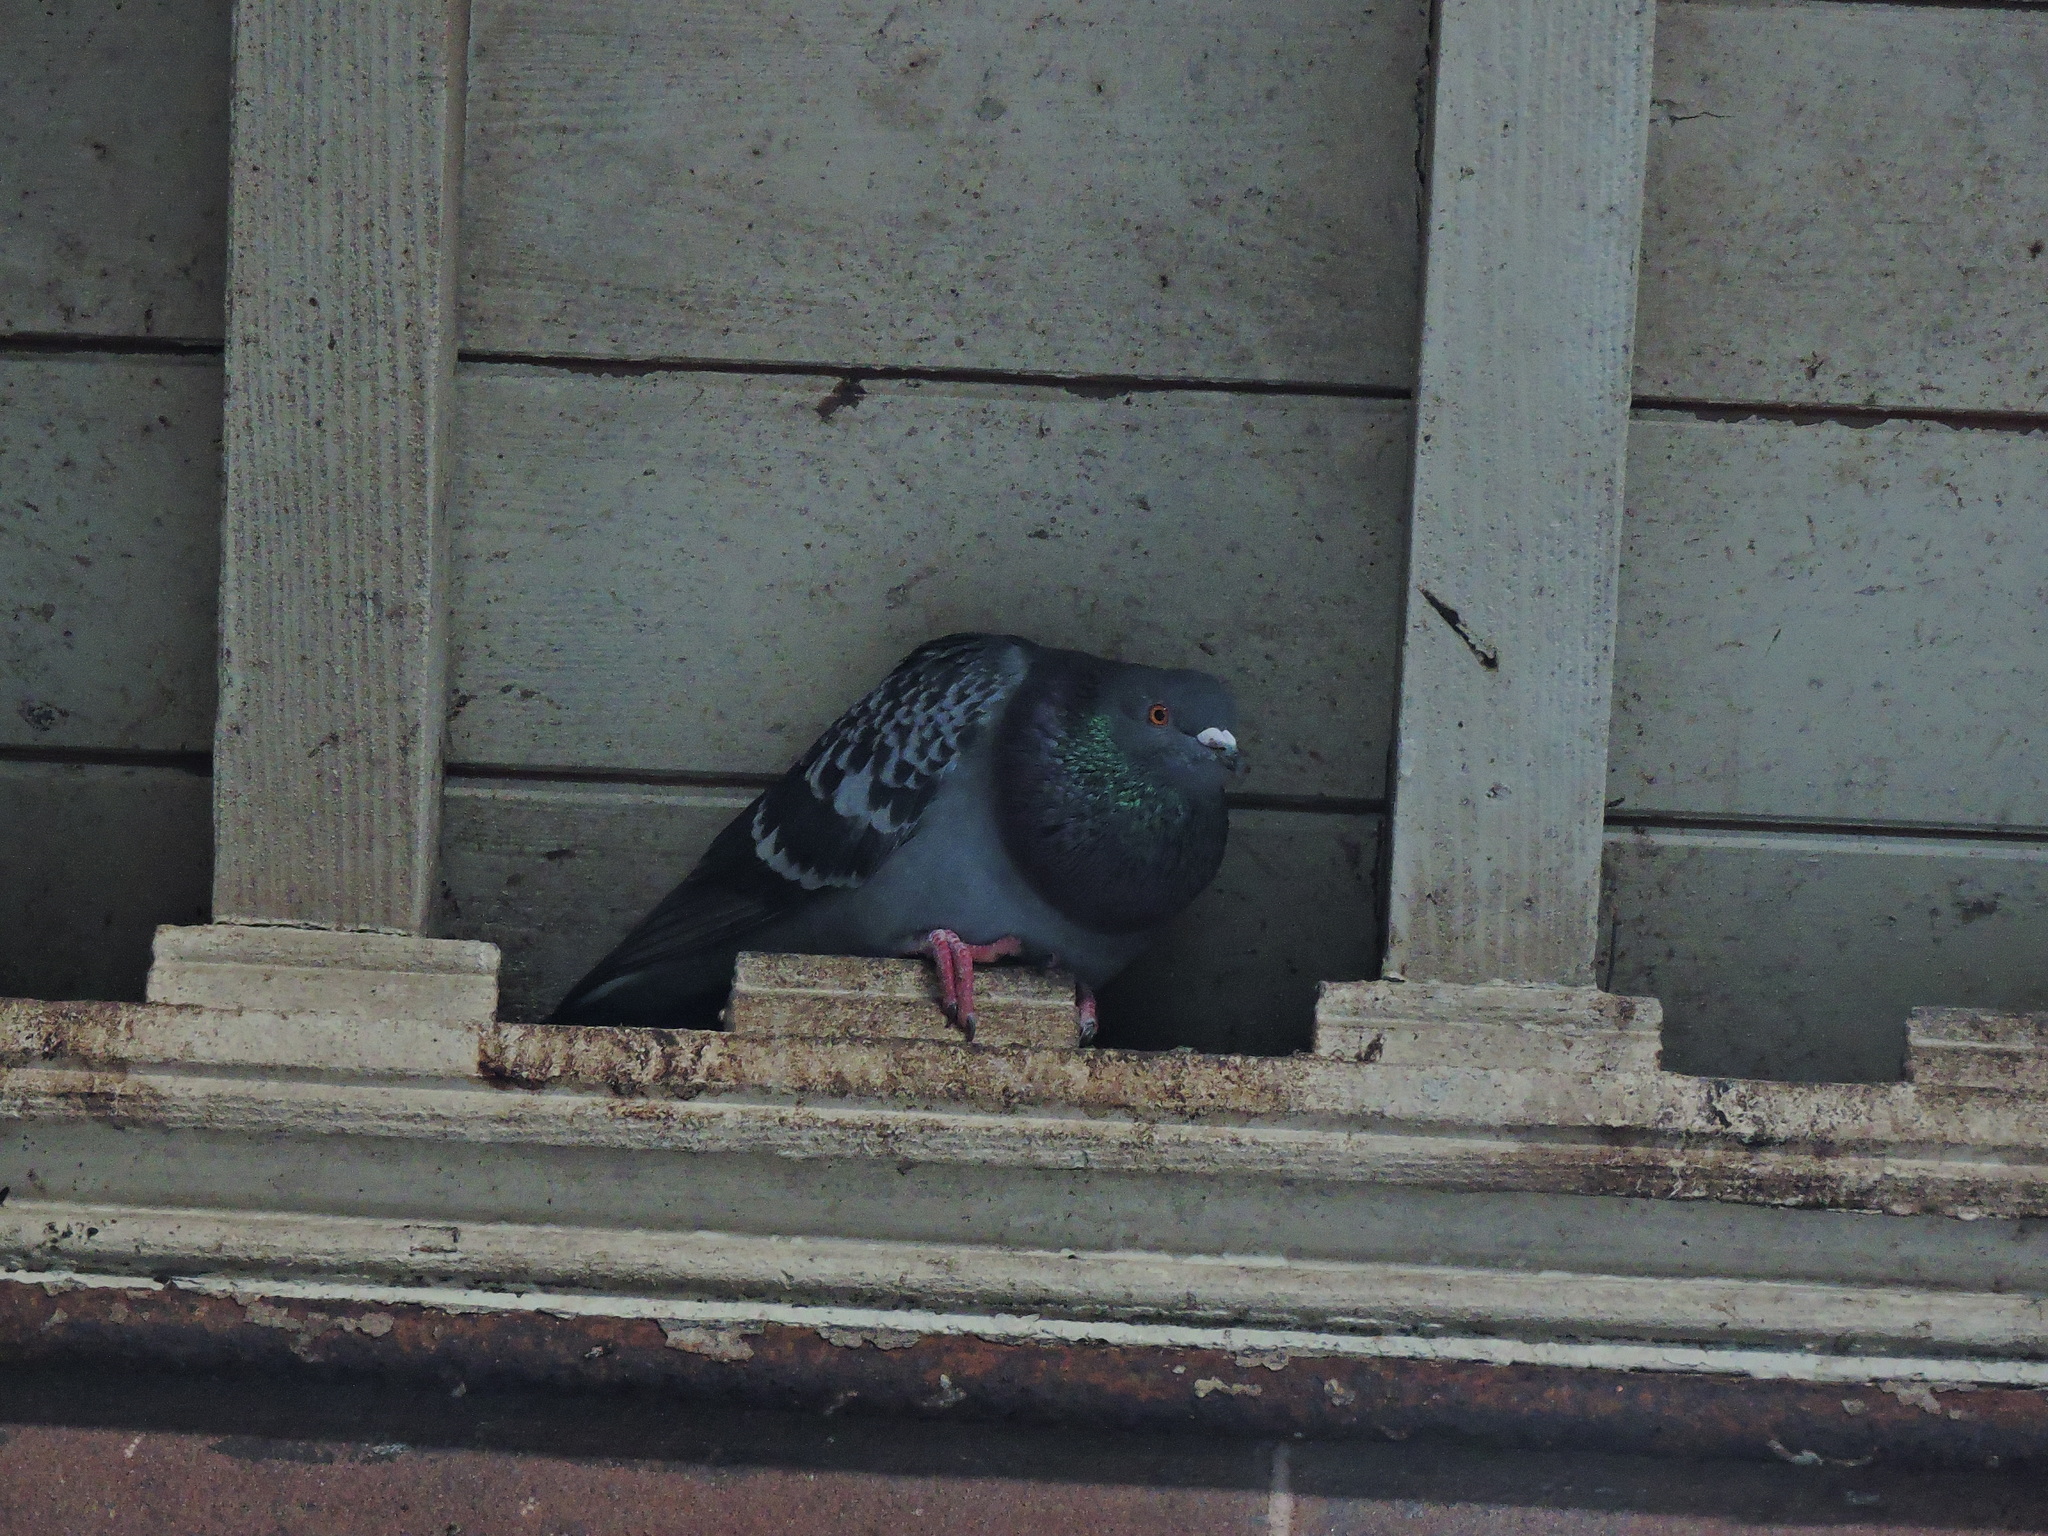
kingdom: Animalia
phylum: Chordata
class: Aves
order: Columbiformes
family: Columbidae
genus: Columba
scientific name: Columba livia
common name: Rock pigeon
